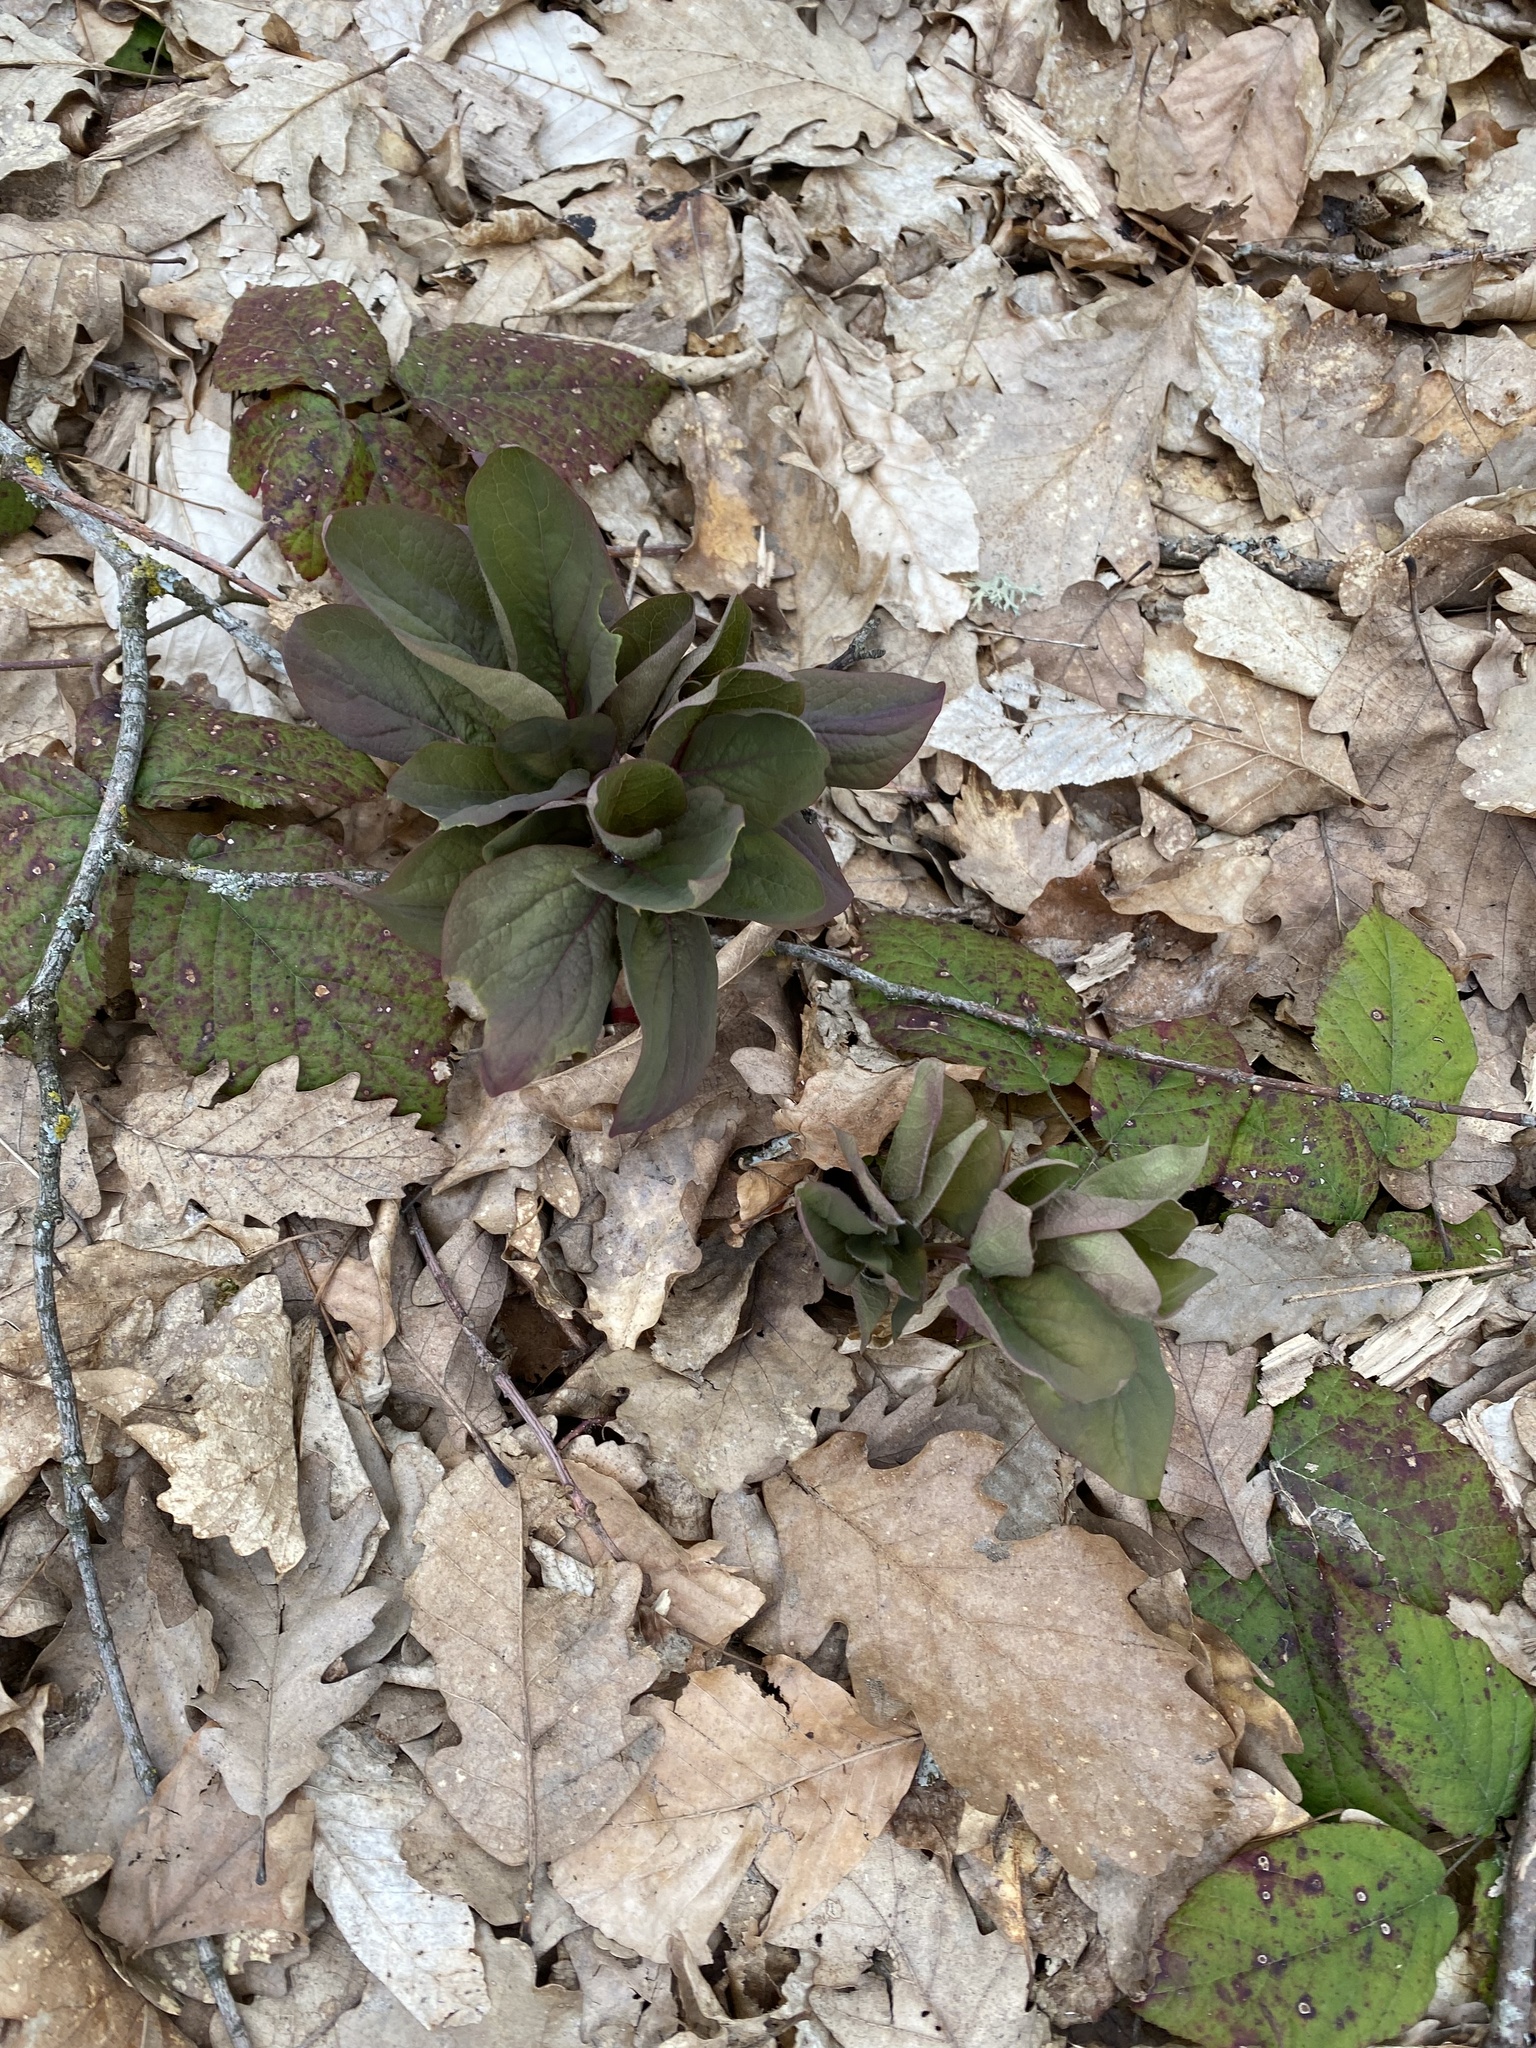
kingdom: Plantae
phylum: Tracheophyta
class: Magnoliopsida
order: Saxifragales
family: Paeoniaceae
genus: Paeonia
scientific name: Paeonia caucasica
